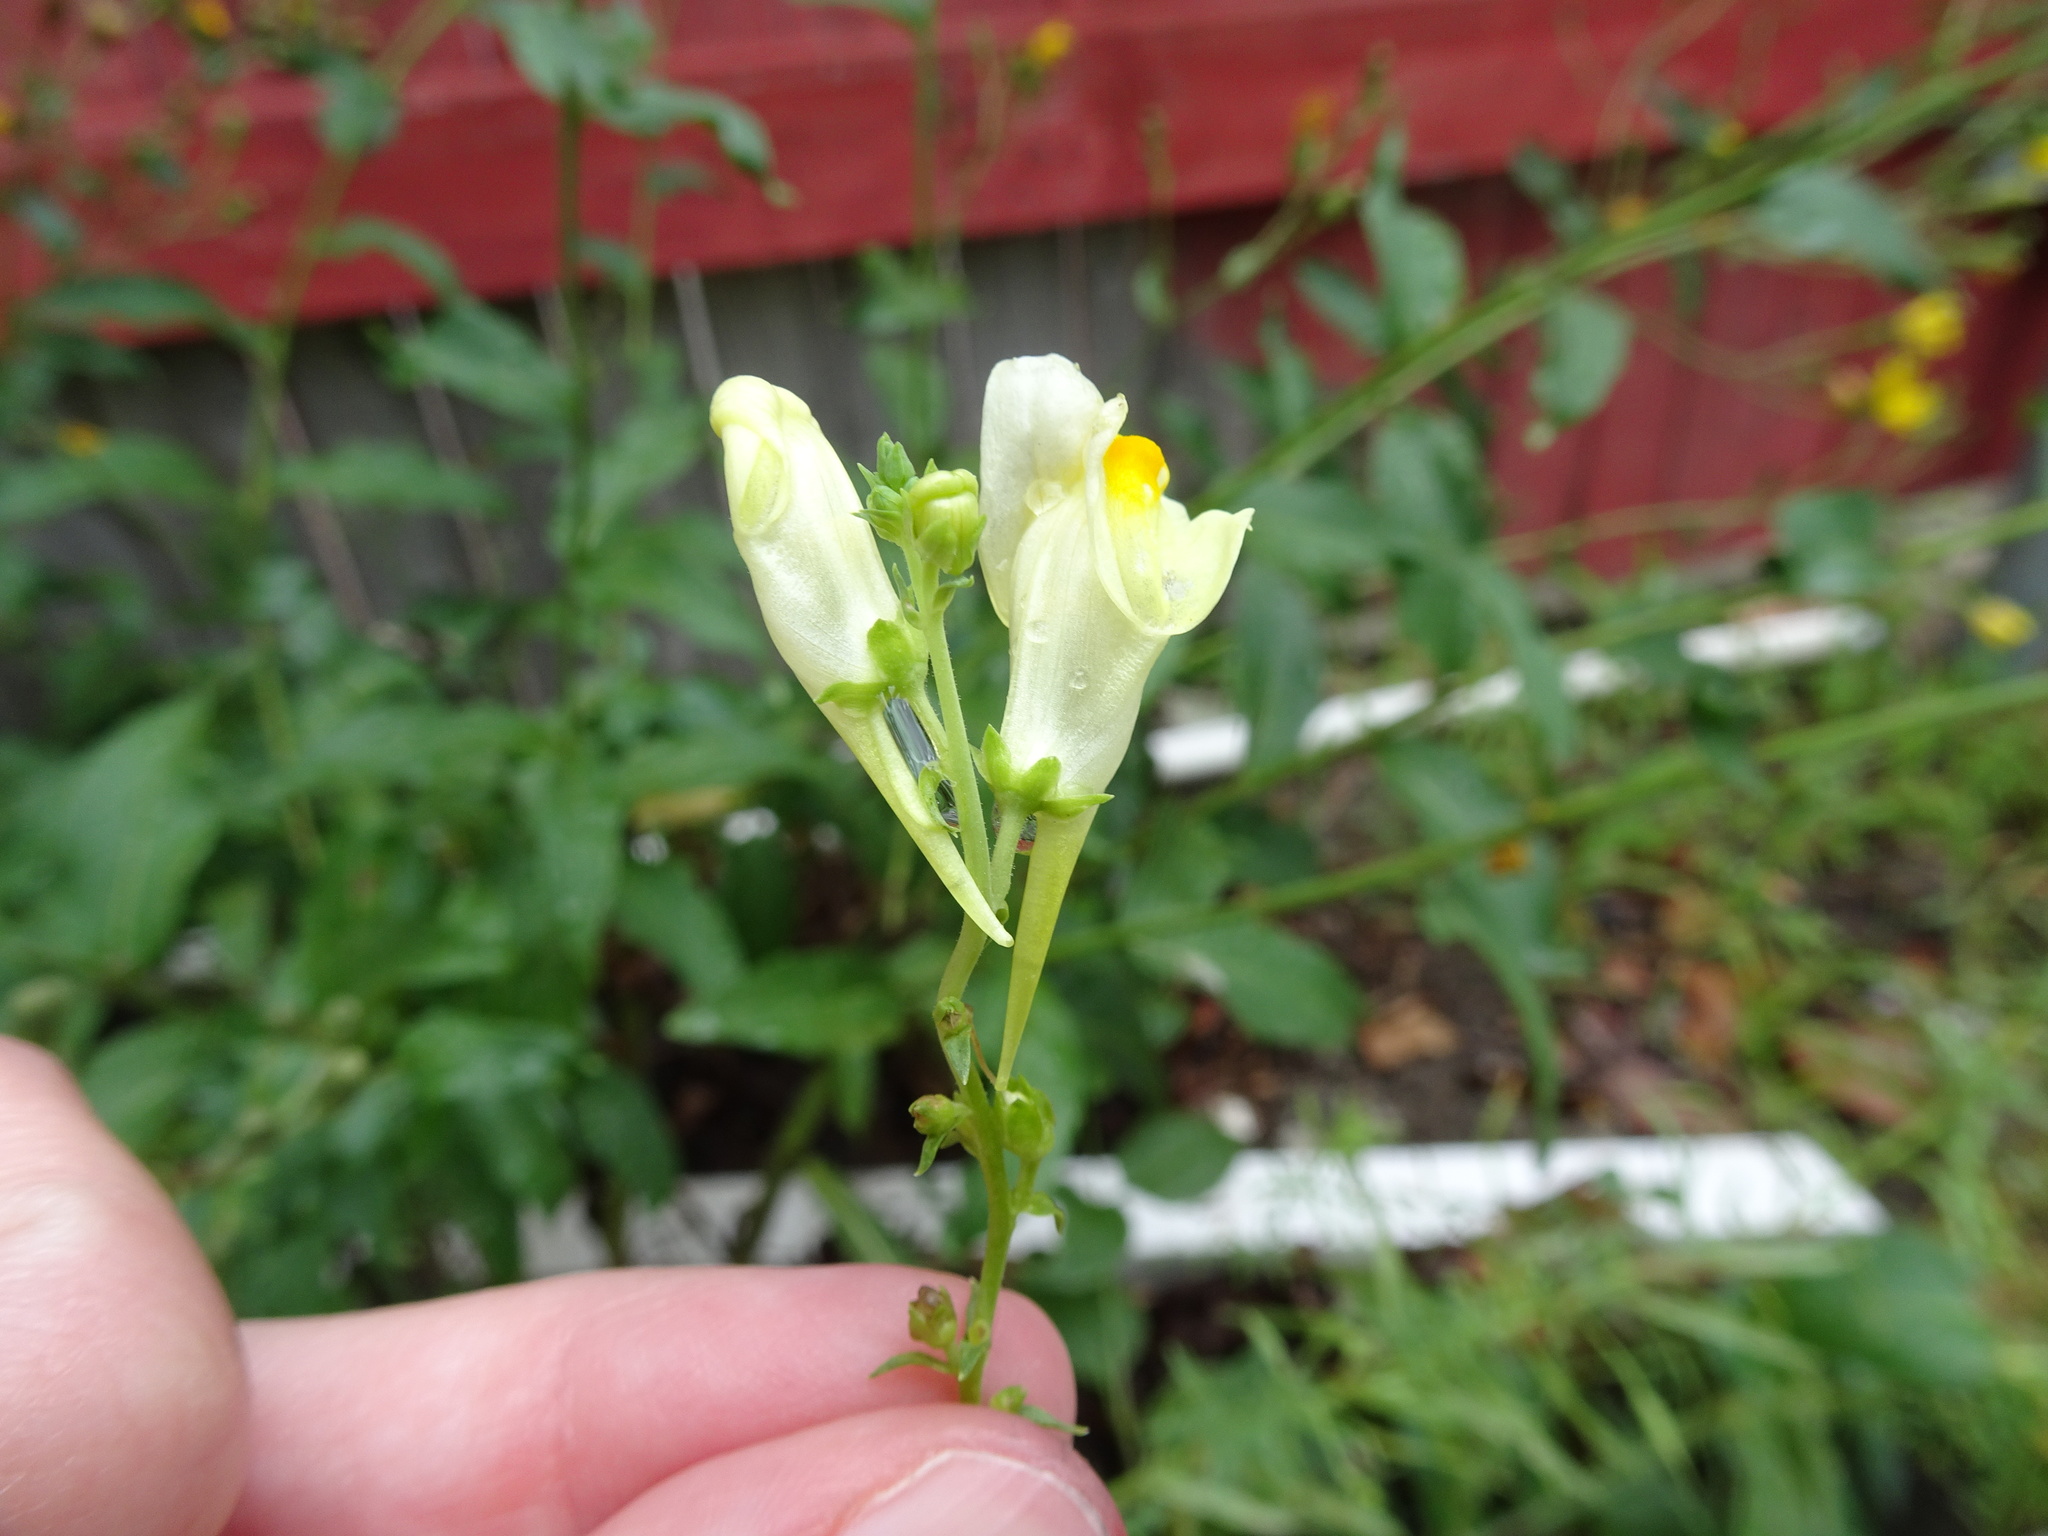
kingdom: Plantae
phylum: Tracheophyta
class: Magnoliopsida
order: Lamiales
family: Plantaginaceae
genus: Linaria
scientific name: Linaria vulgaris
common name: Butter and eggs
